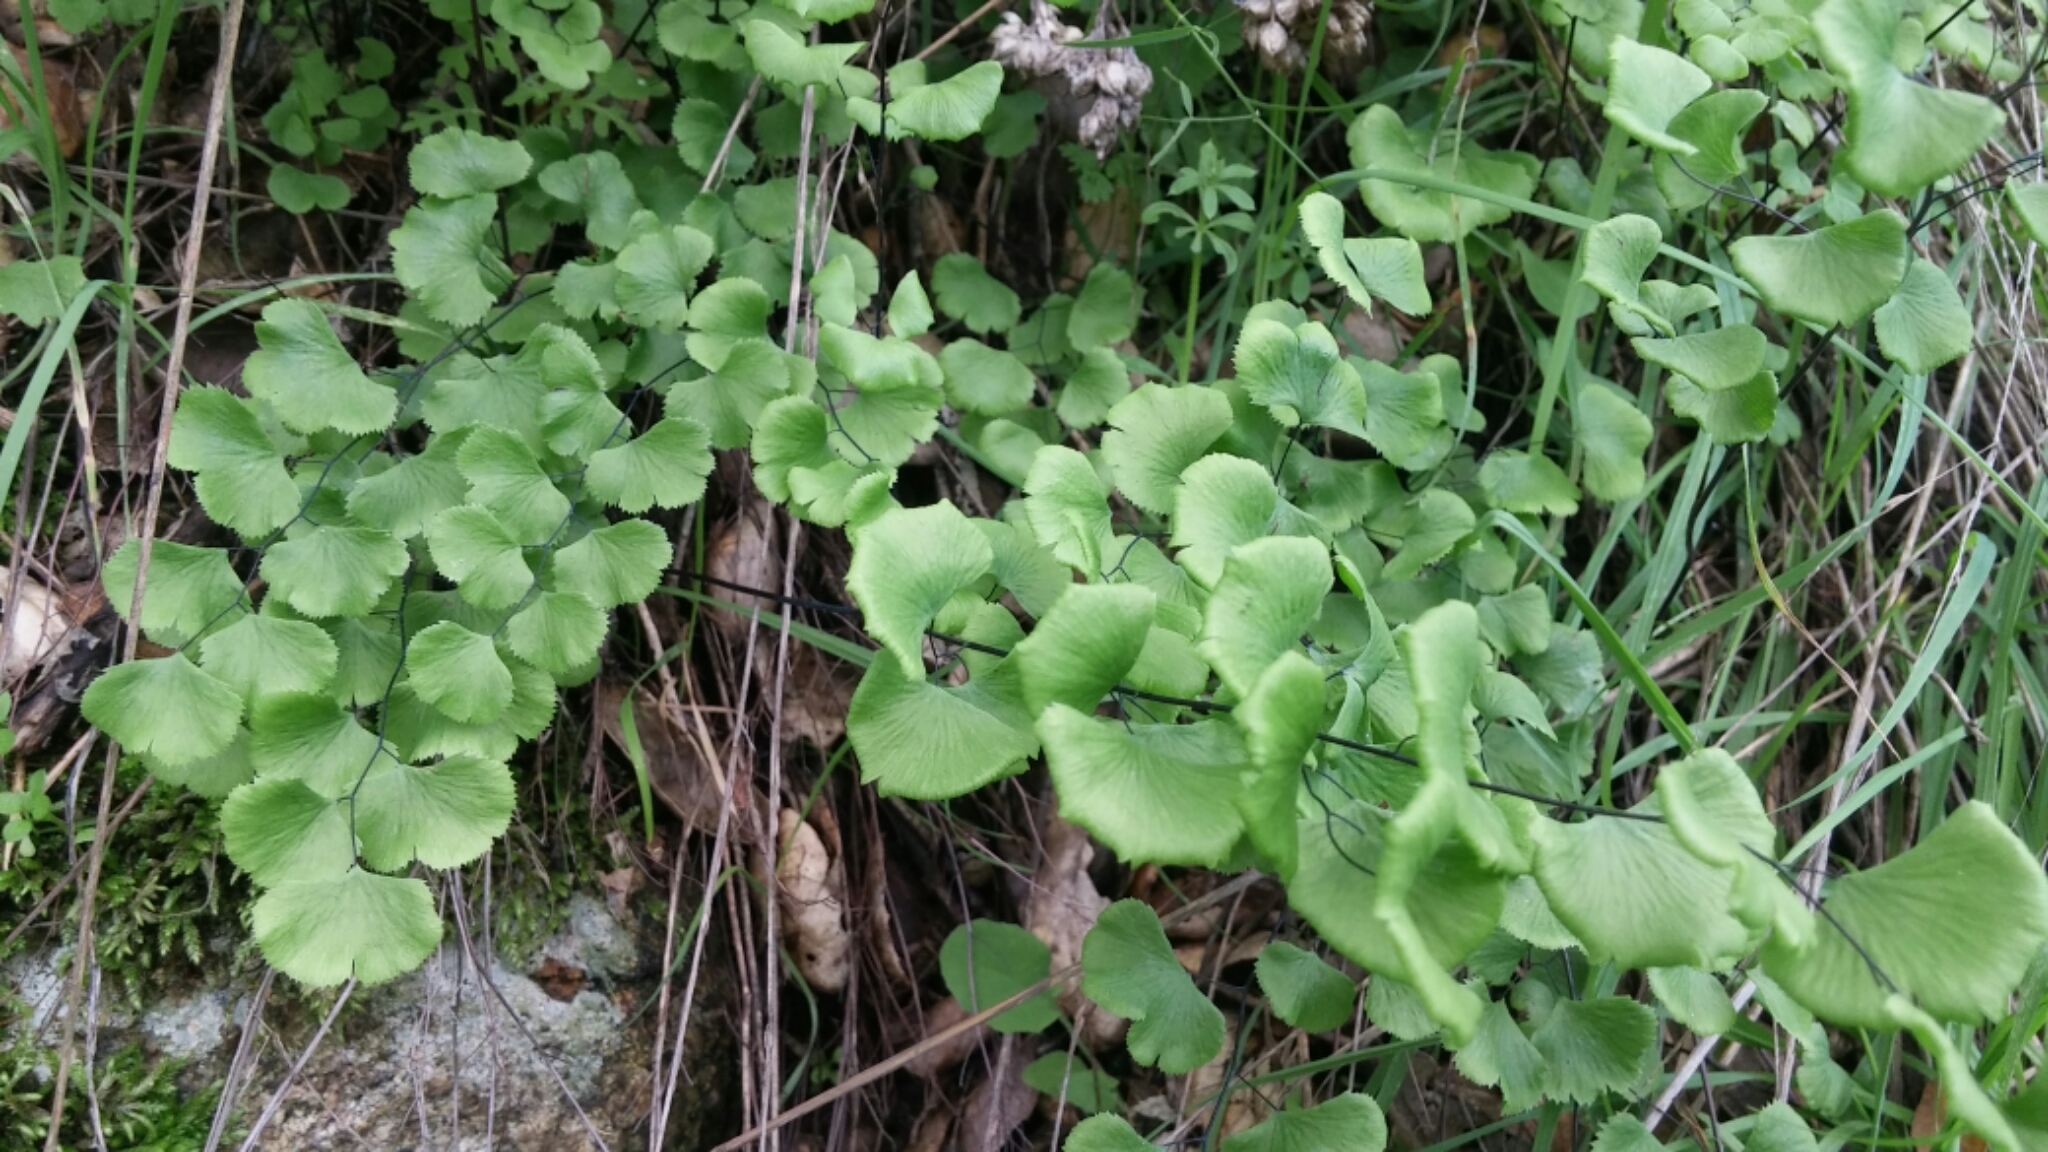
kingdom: Plantae
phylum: Tracheophyta
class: Polypodiopsida
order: Polypodiales
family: Pteridaceae
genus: Adiantum
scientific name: Adiantum jordanii
